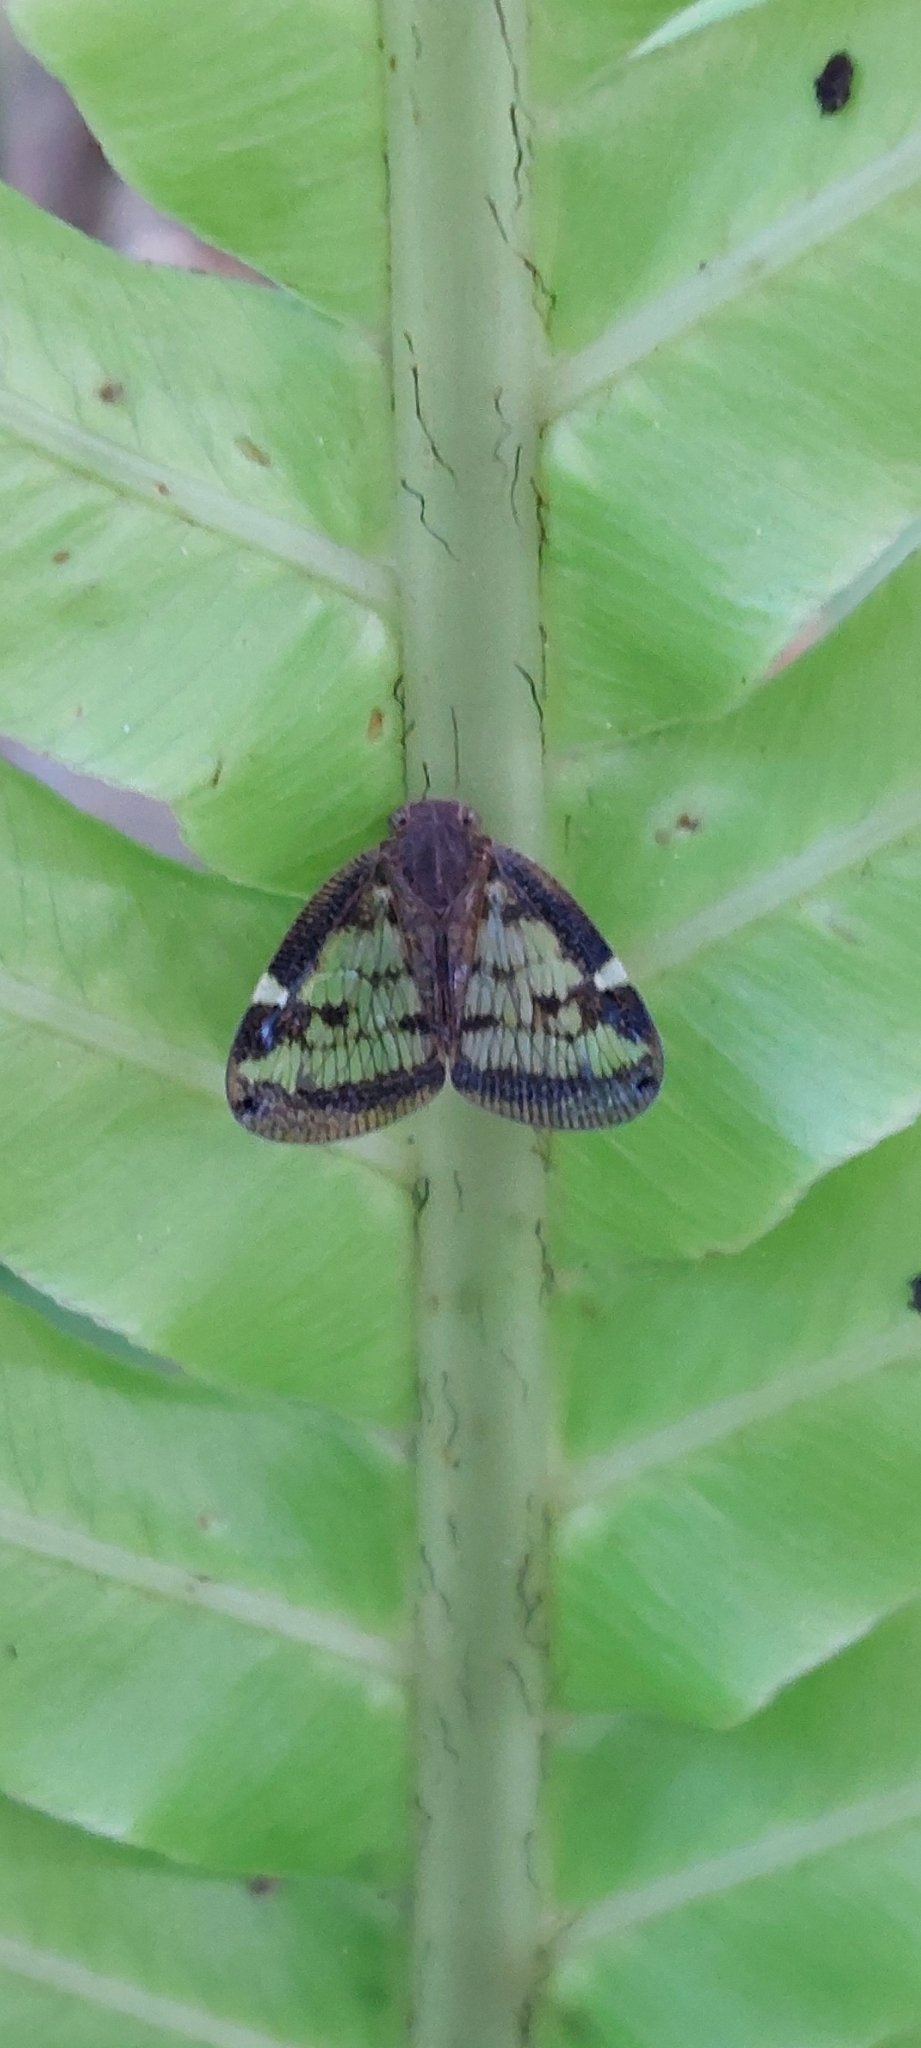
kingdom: Animalia
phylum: Arthropoda
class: Insecta
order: Hemiptera
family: Ricaniidae
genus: Scolypopa
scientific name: Scolypopa australis
